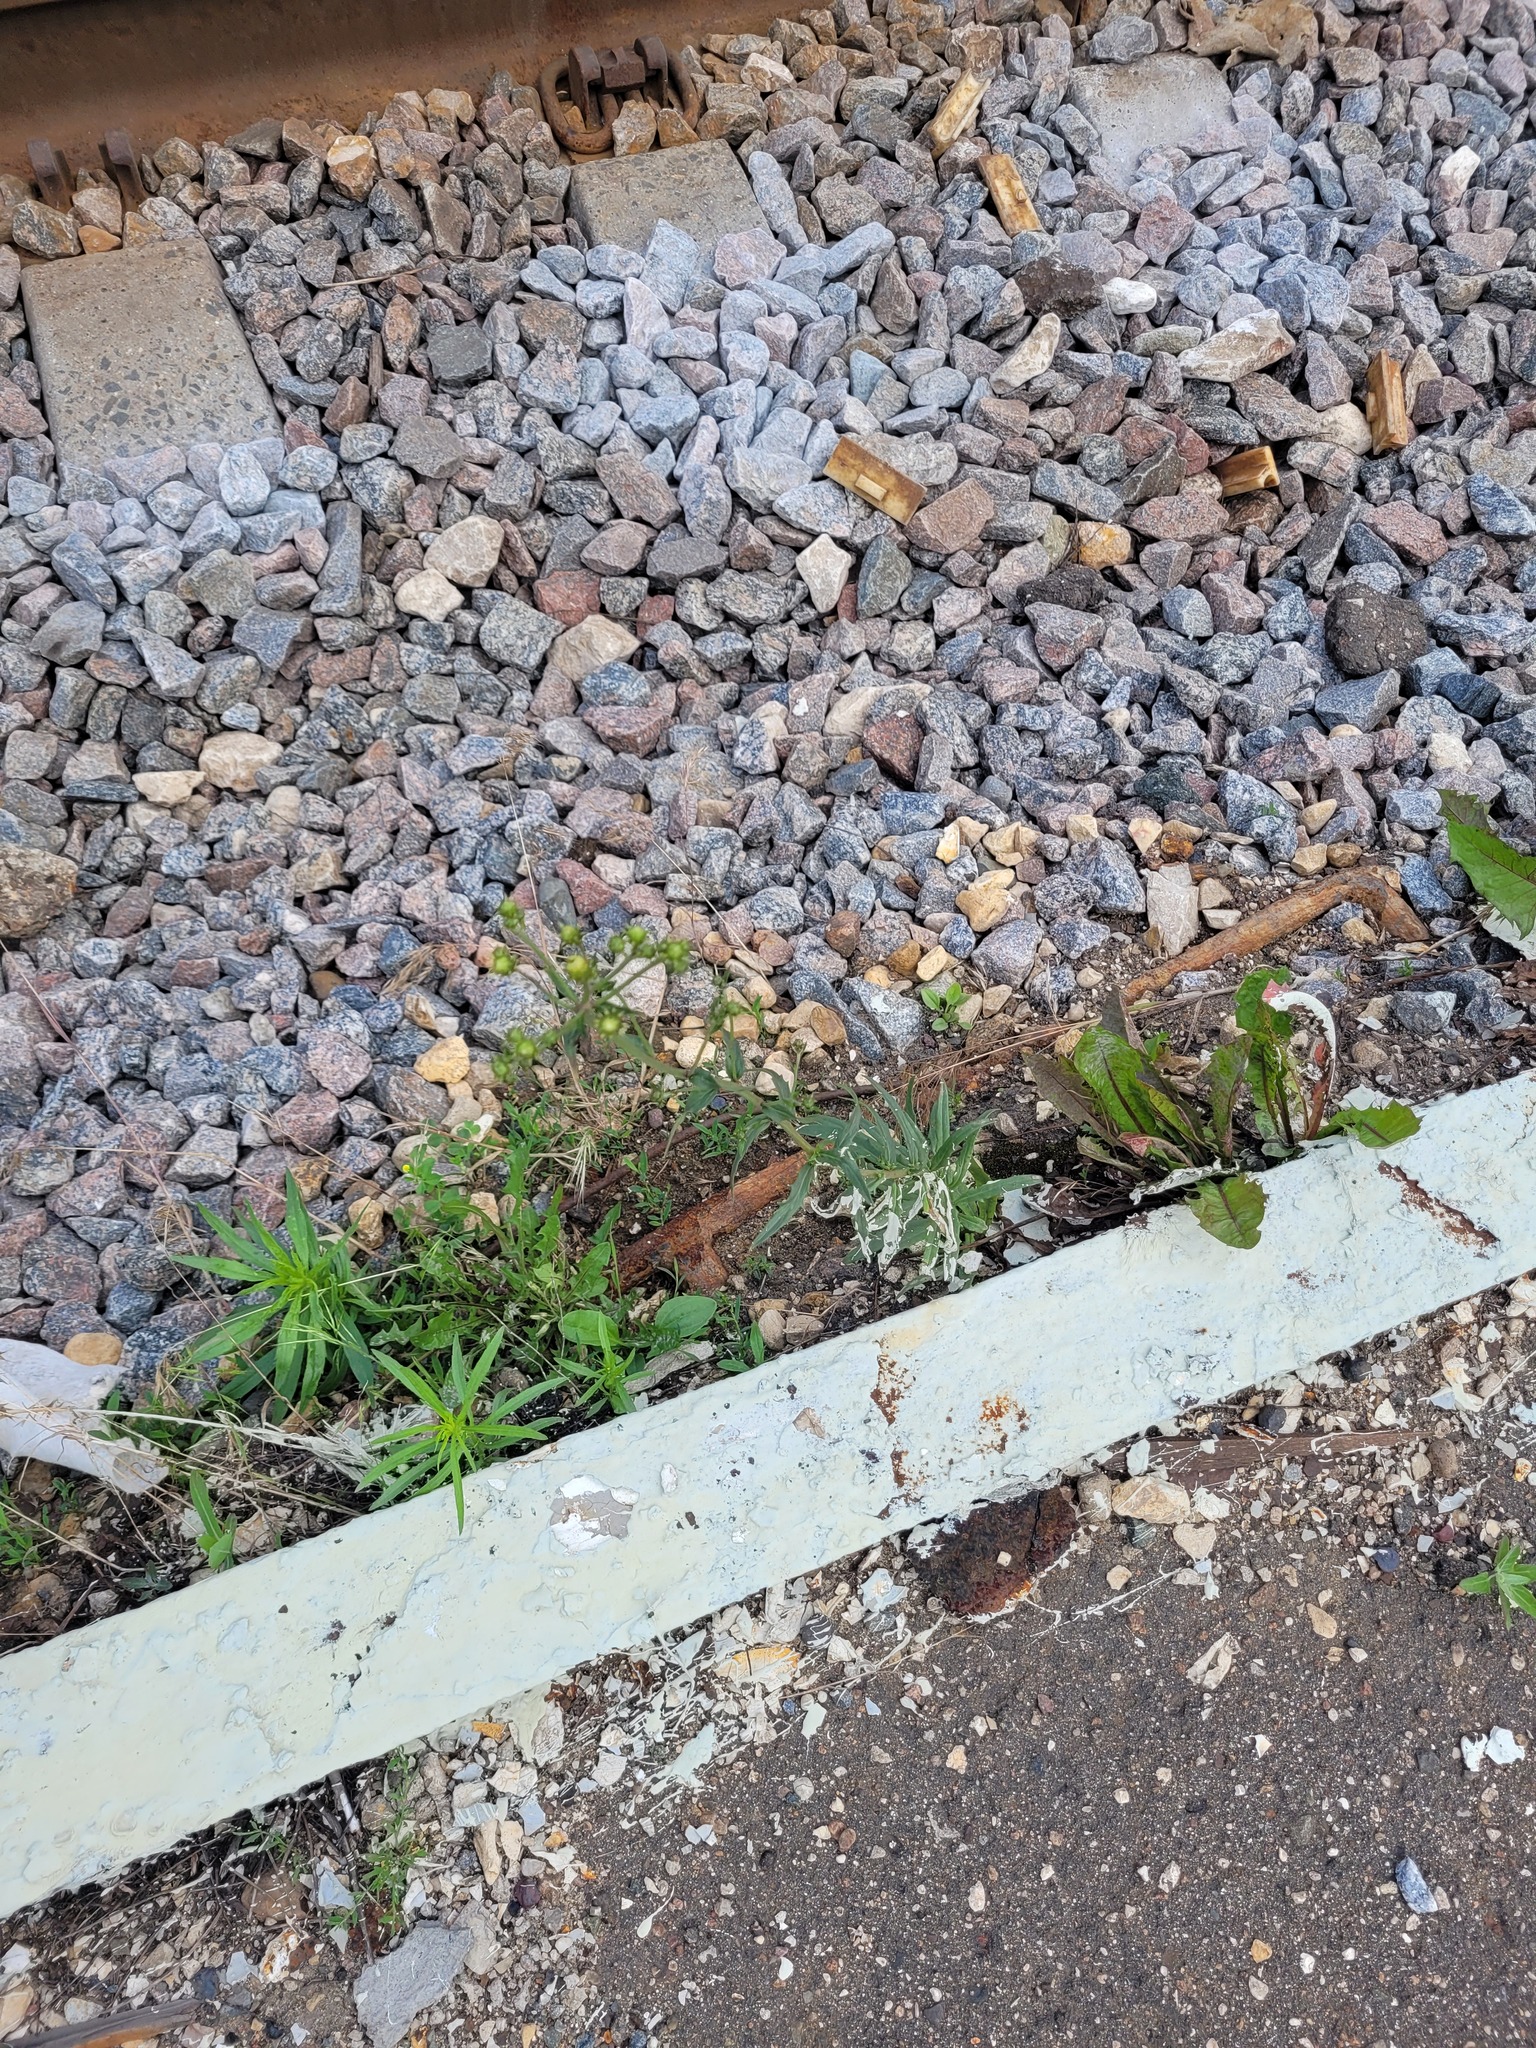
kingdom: Plantae
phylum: Tracheophyta
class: Magnoliopsida
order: Asterales
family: Asteraceae
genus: Hieracium
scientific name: Hieracium umbellatum
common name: Northern hawkweed
